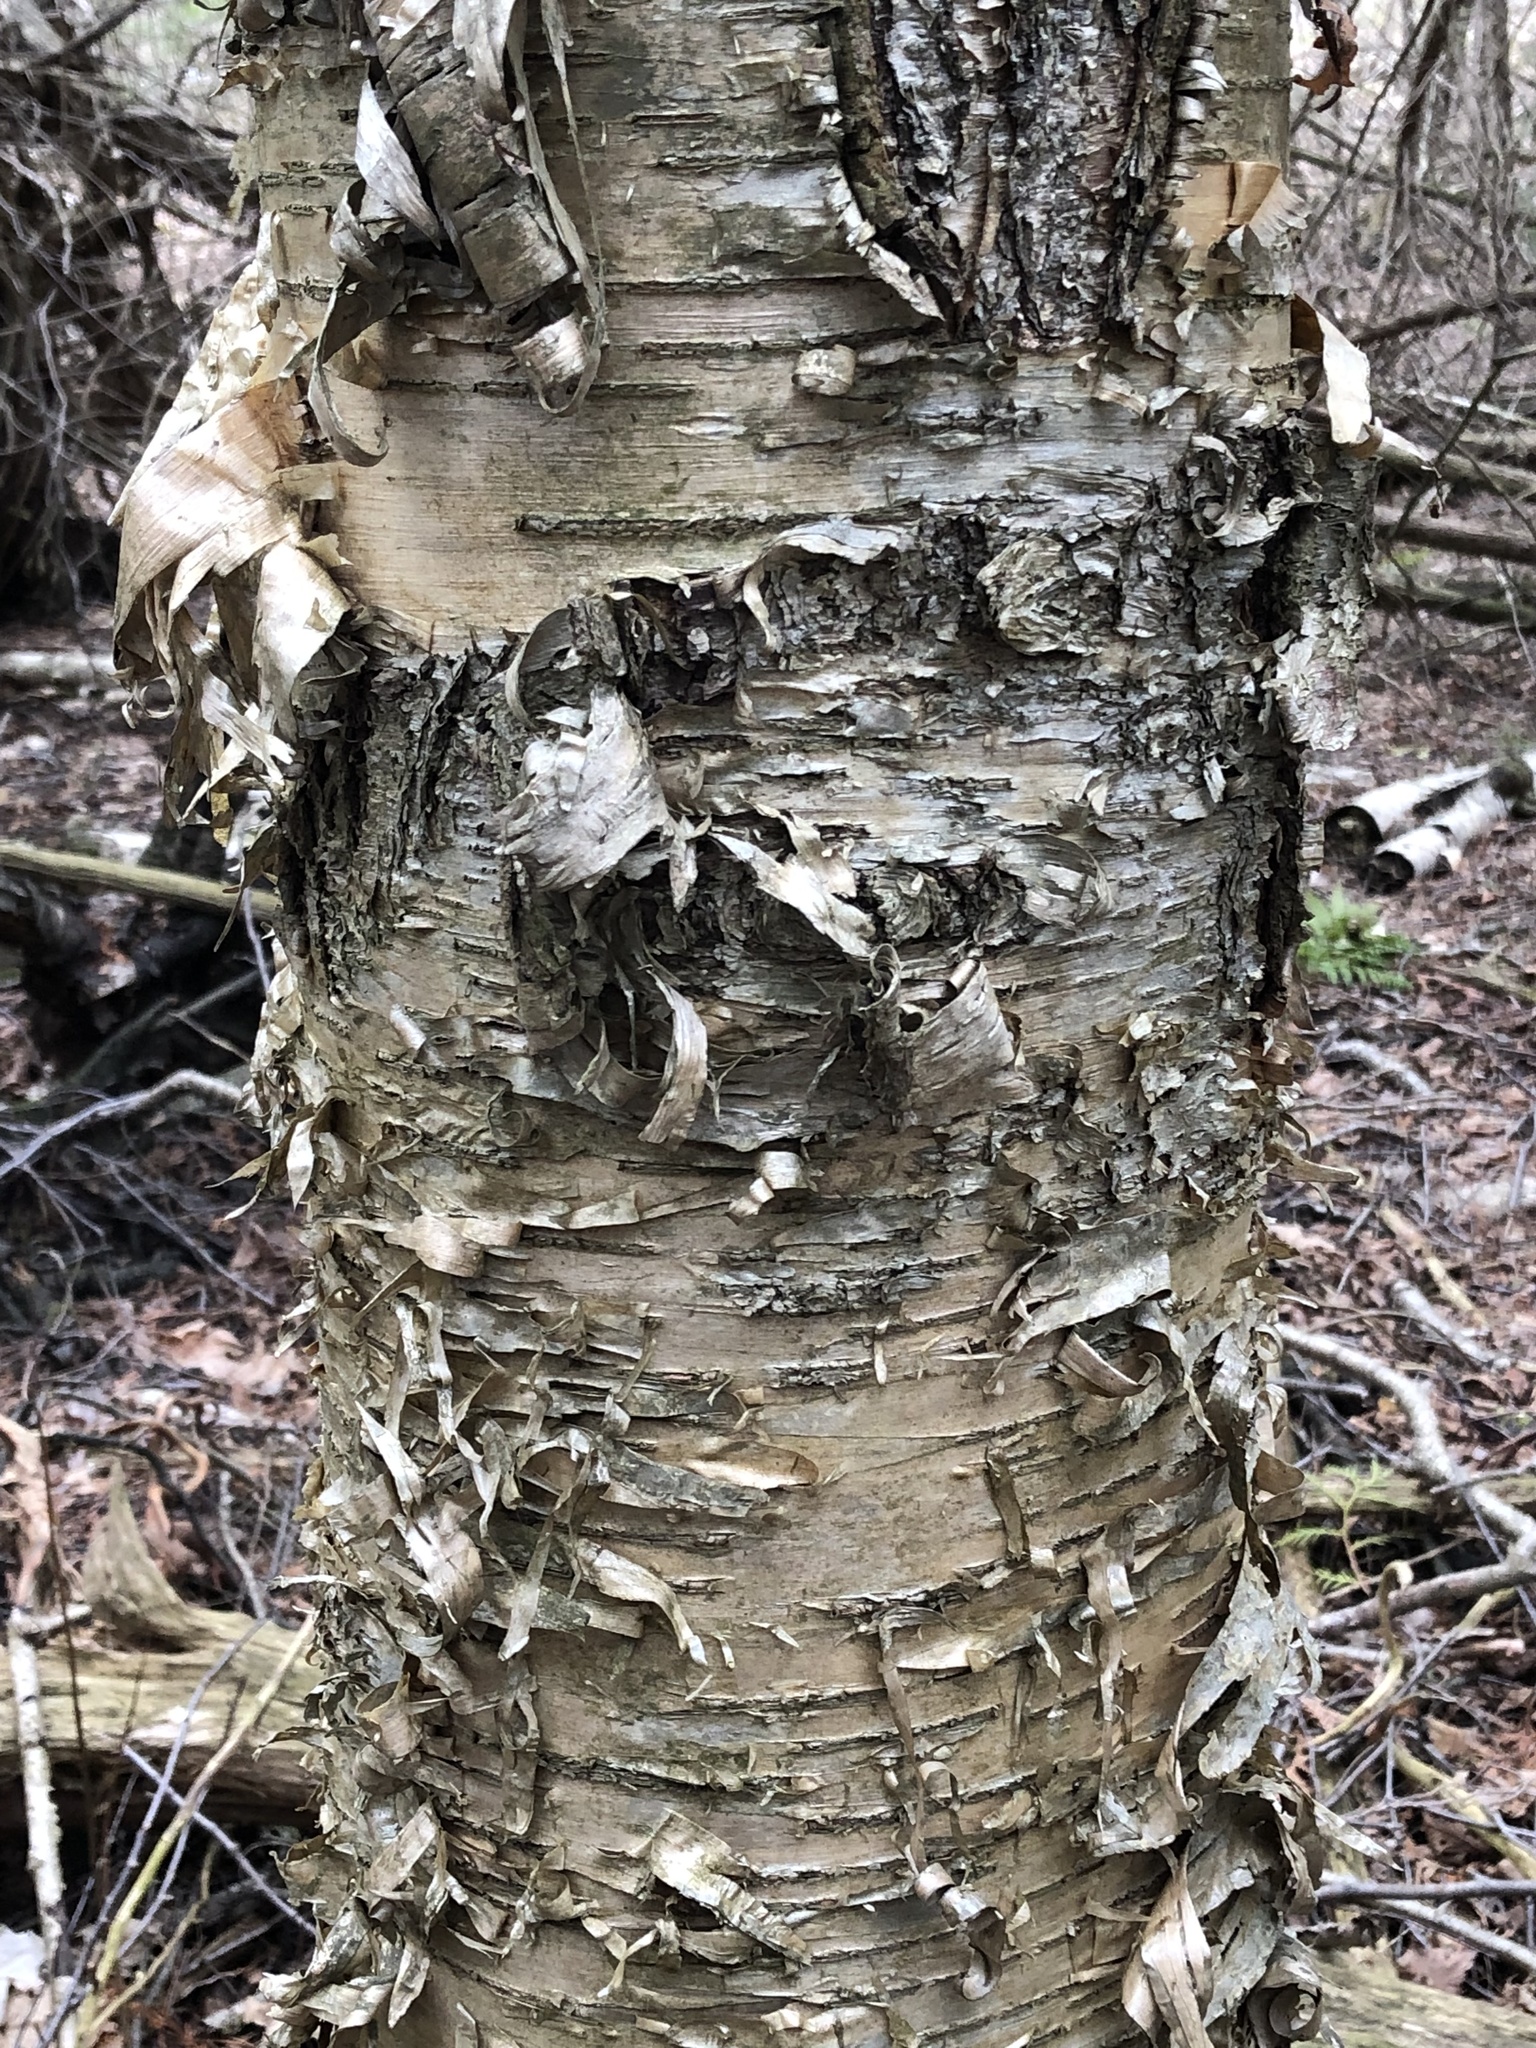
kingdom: Plantae
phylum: Tracheophyta
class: Magnoliopsida
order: Fagales
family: Betulaceae
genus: Betula
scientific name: Betula alleghaniensis
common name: Yellow birch
